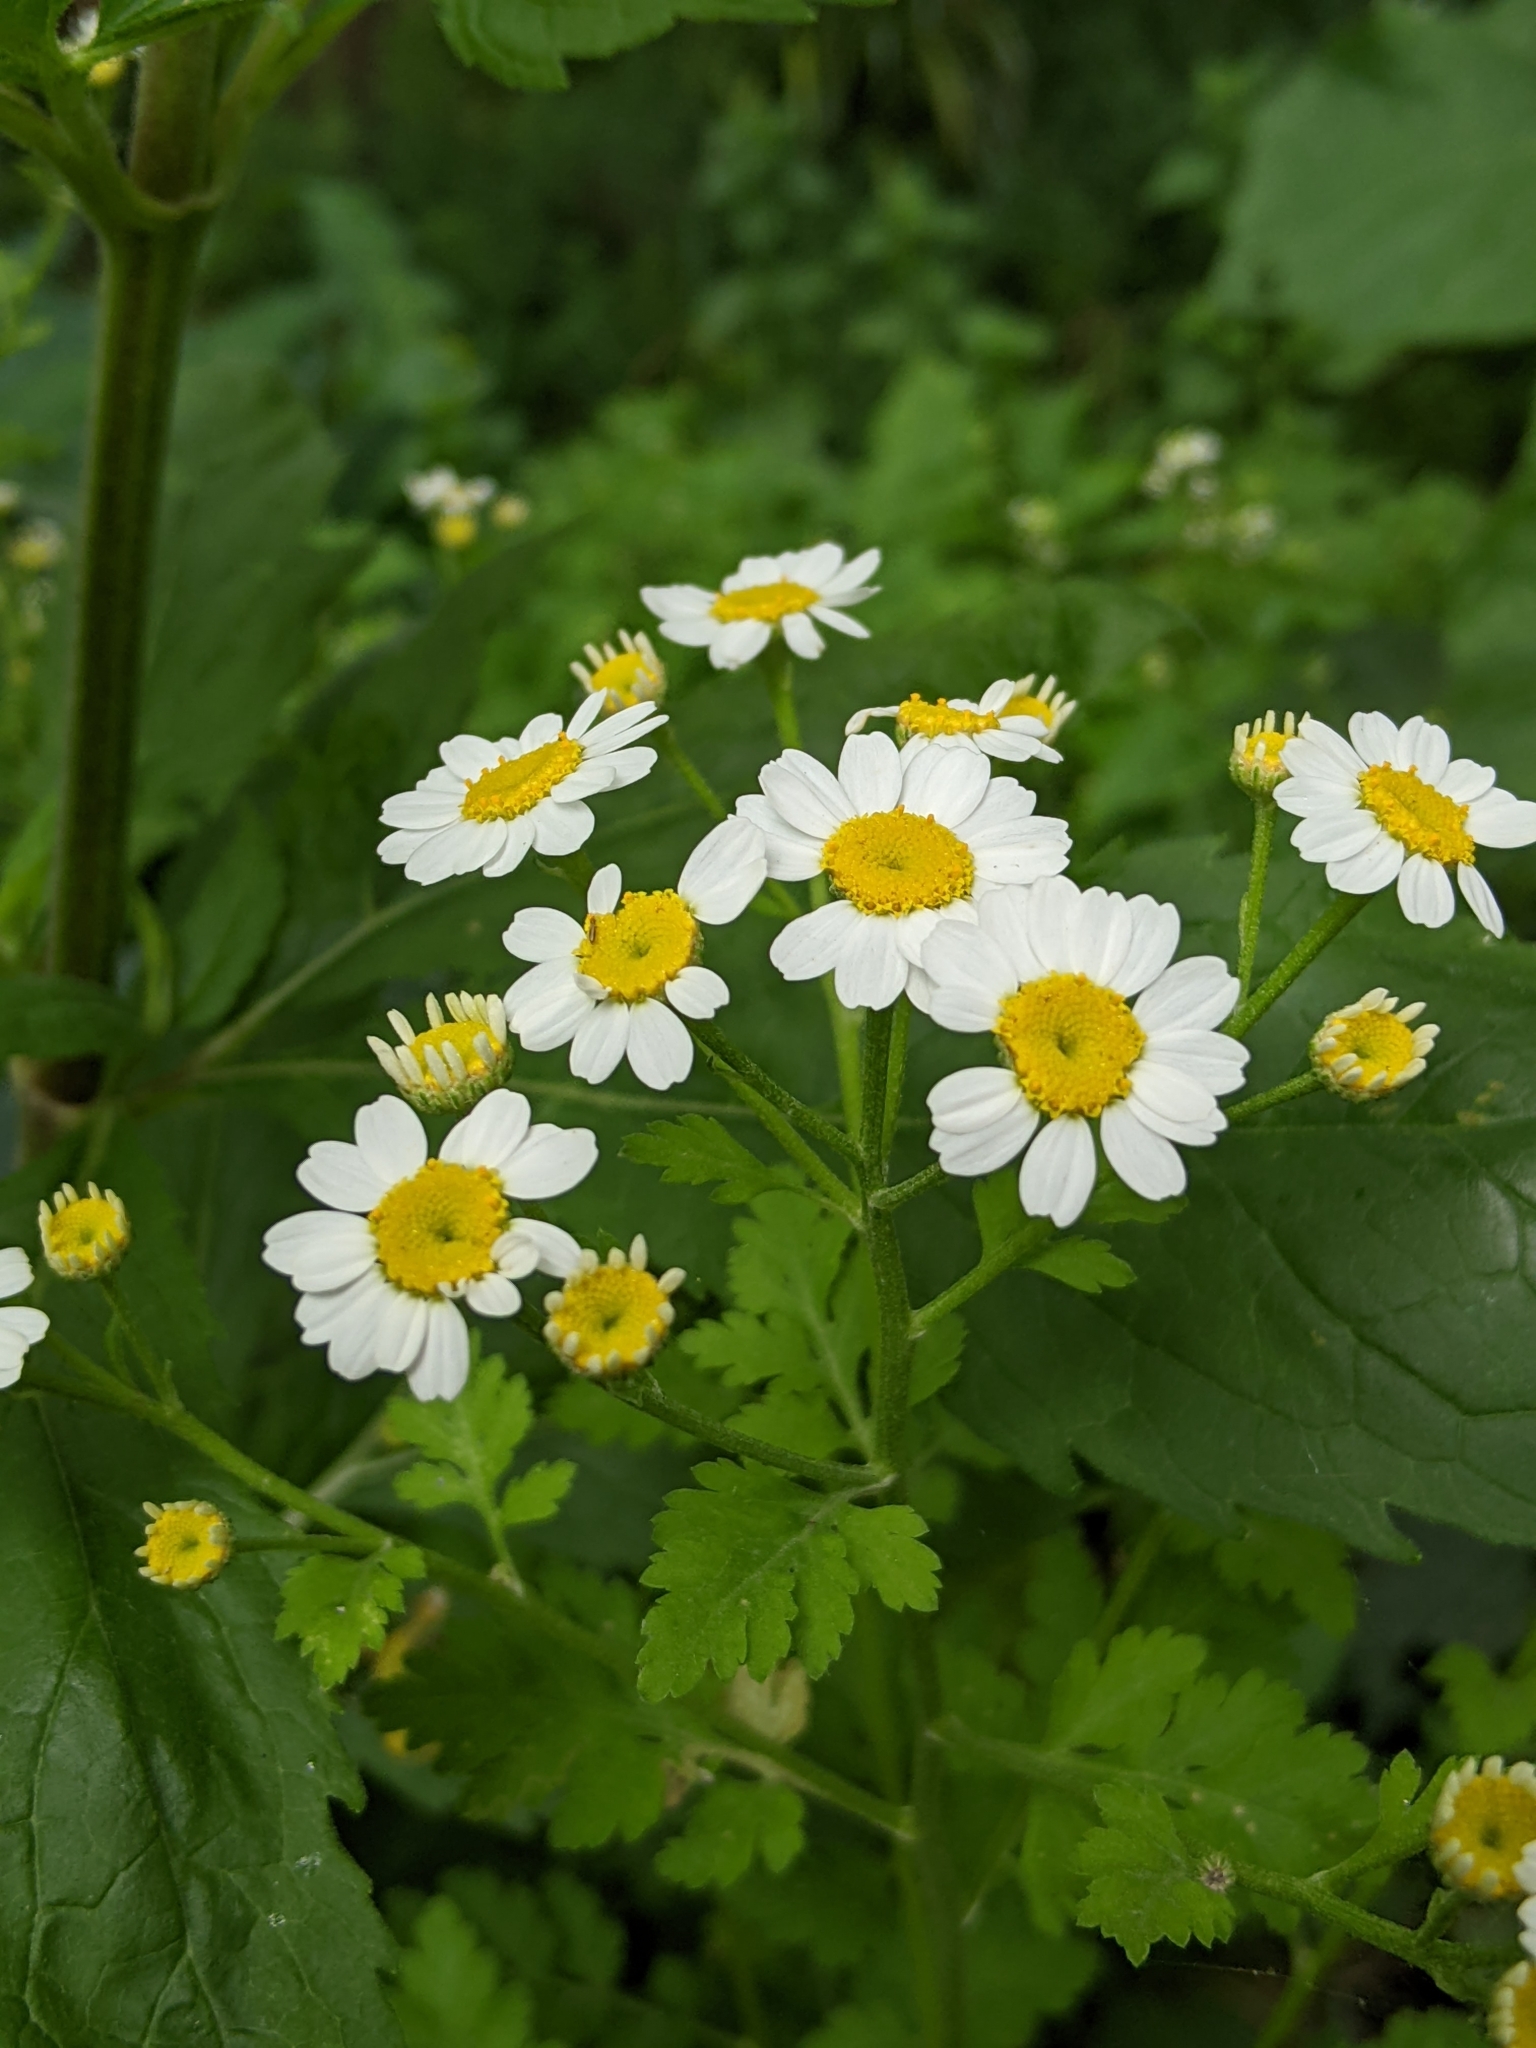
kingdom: Plantae
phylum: Tracheophyta
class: Magnoliopsida
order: Asterales
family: Asteraceae
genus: Tanacetum
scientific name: Tanacetum parthenium
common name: Feverfew
